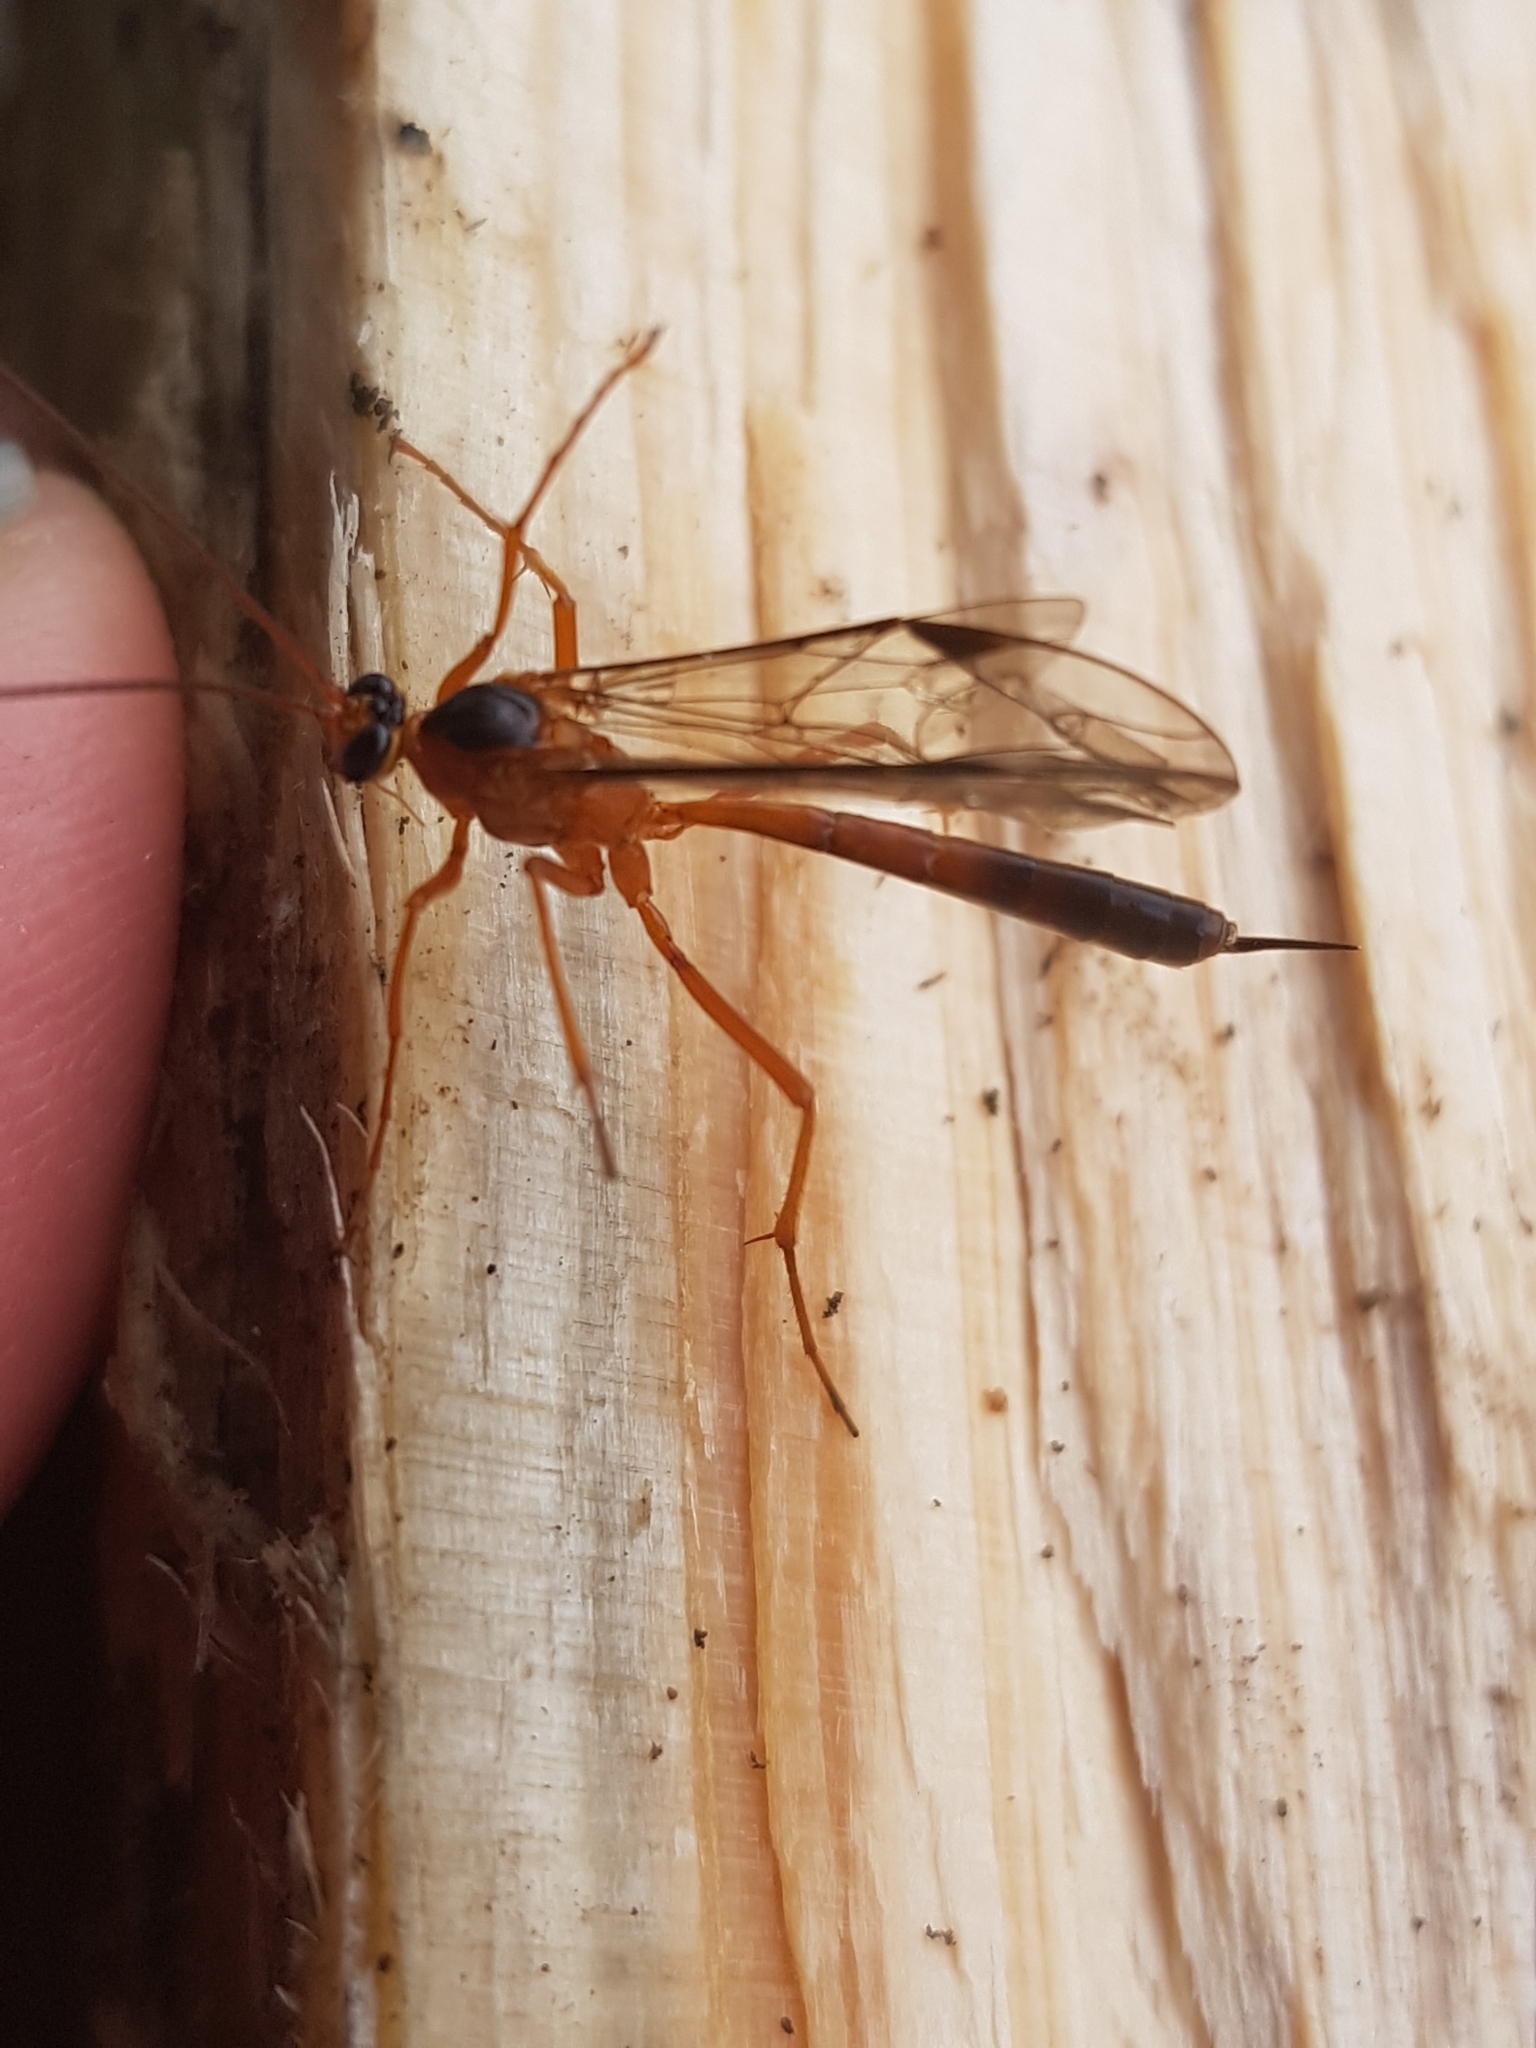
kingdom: Animalia
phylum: Arthropoda
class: Insecta
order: Hymenoptera
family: Ichneumonidae
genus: Netelia
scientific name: Netelia ephippiata
